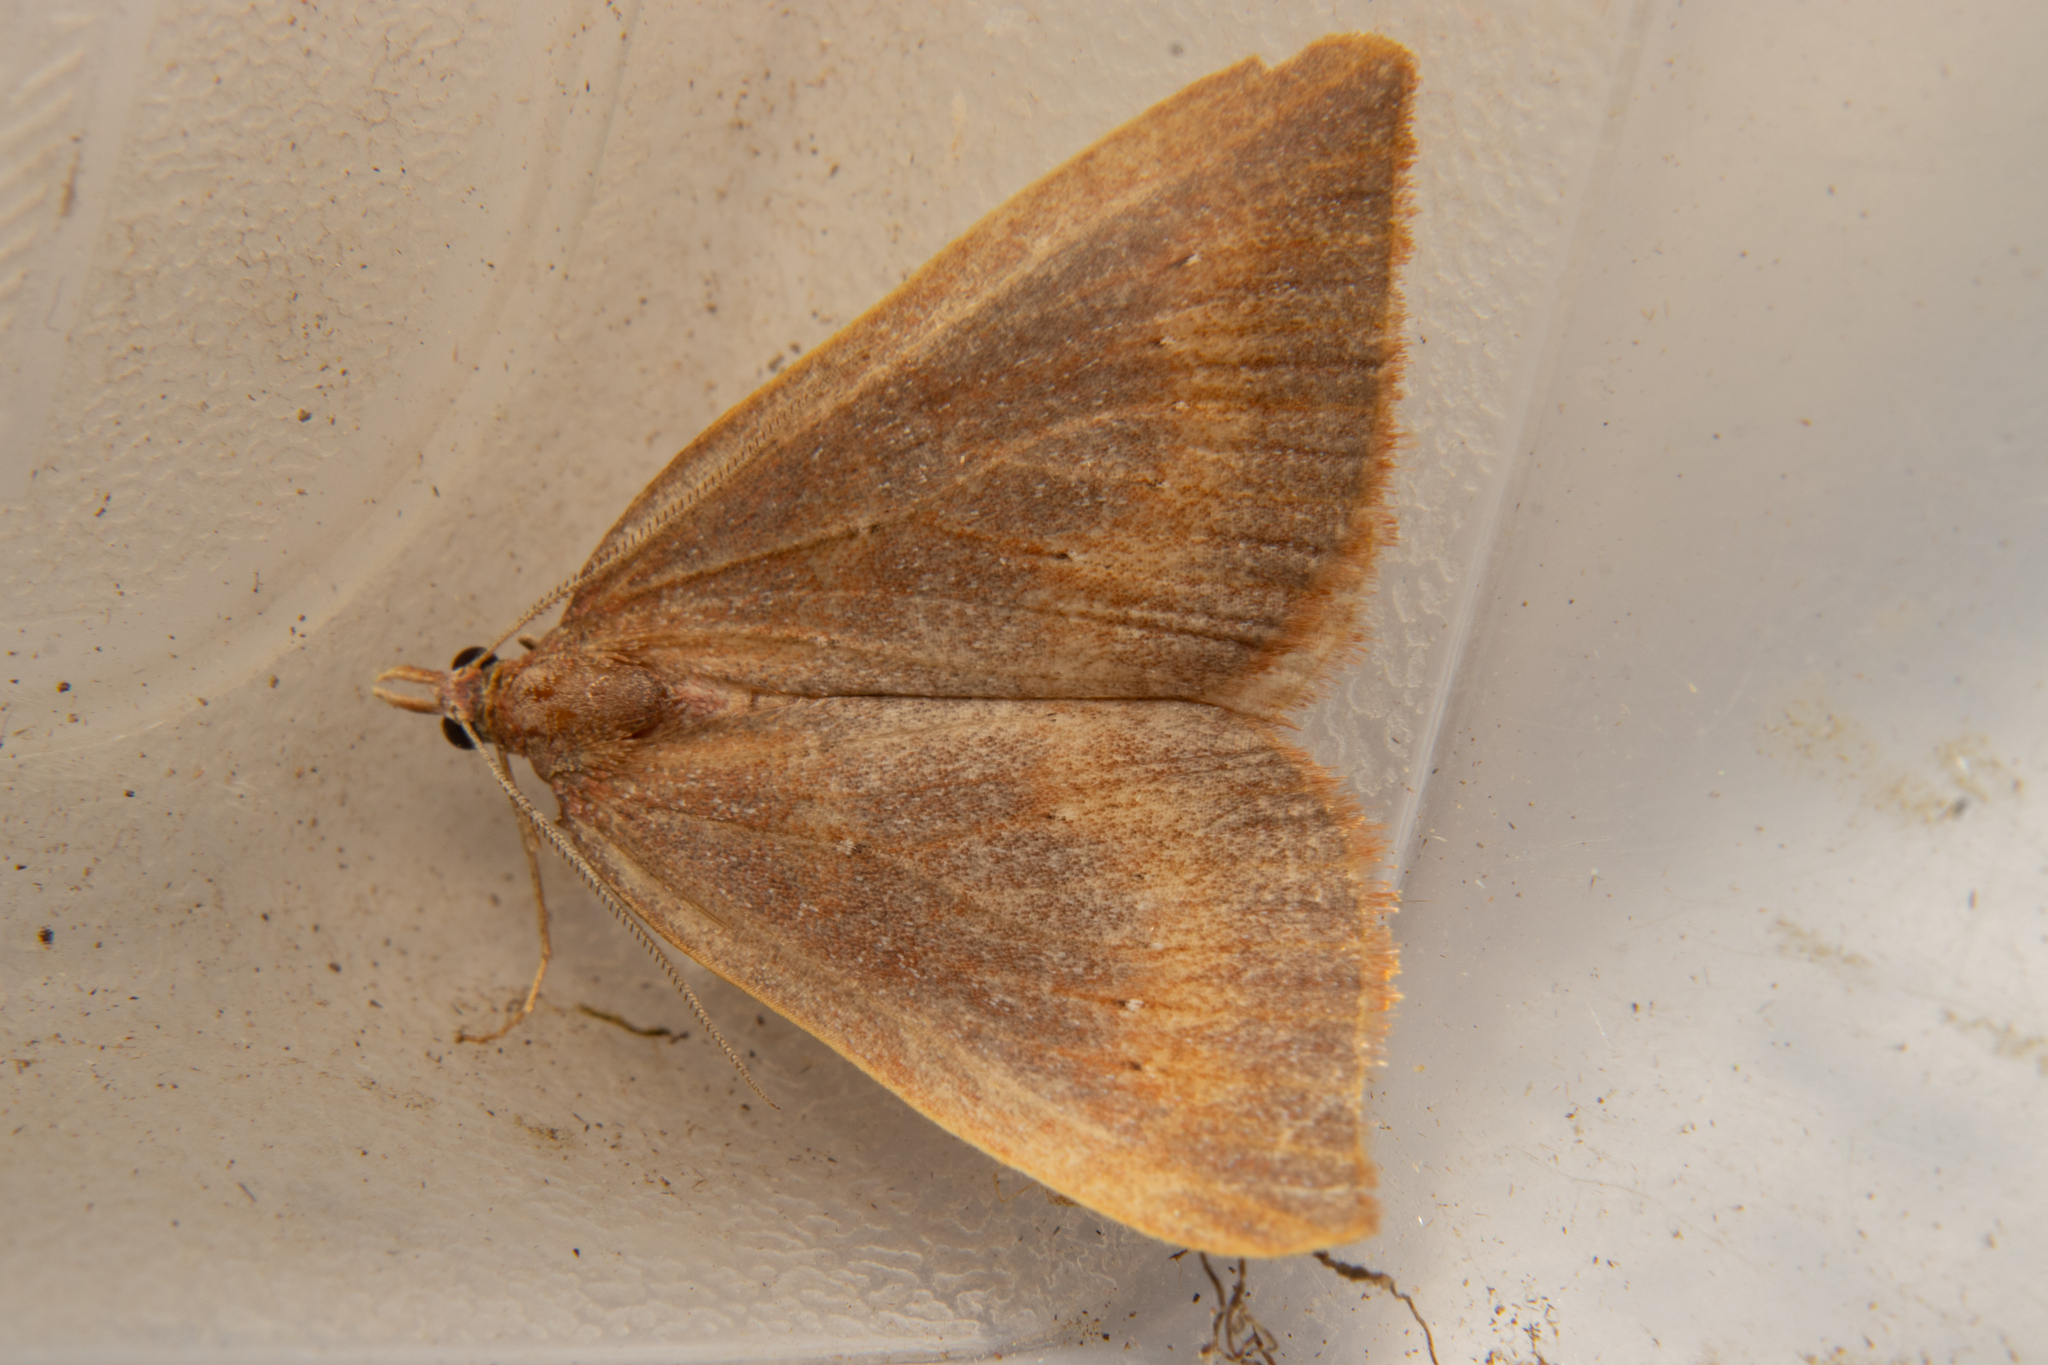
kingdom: Animalia
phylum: Arthropoda
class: Insecta
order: Lepidoptera
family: Geometridae
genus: Xanthorhoe
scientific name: Xanthorhoe occulta
